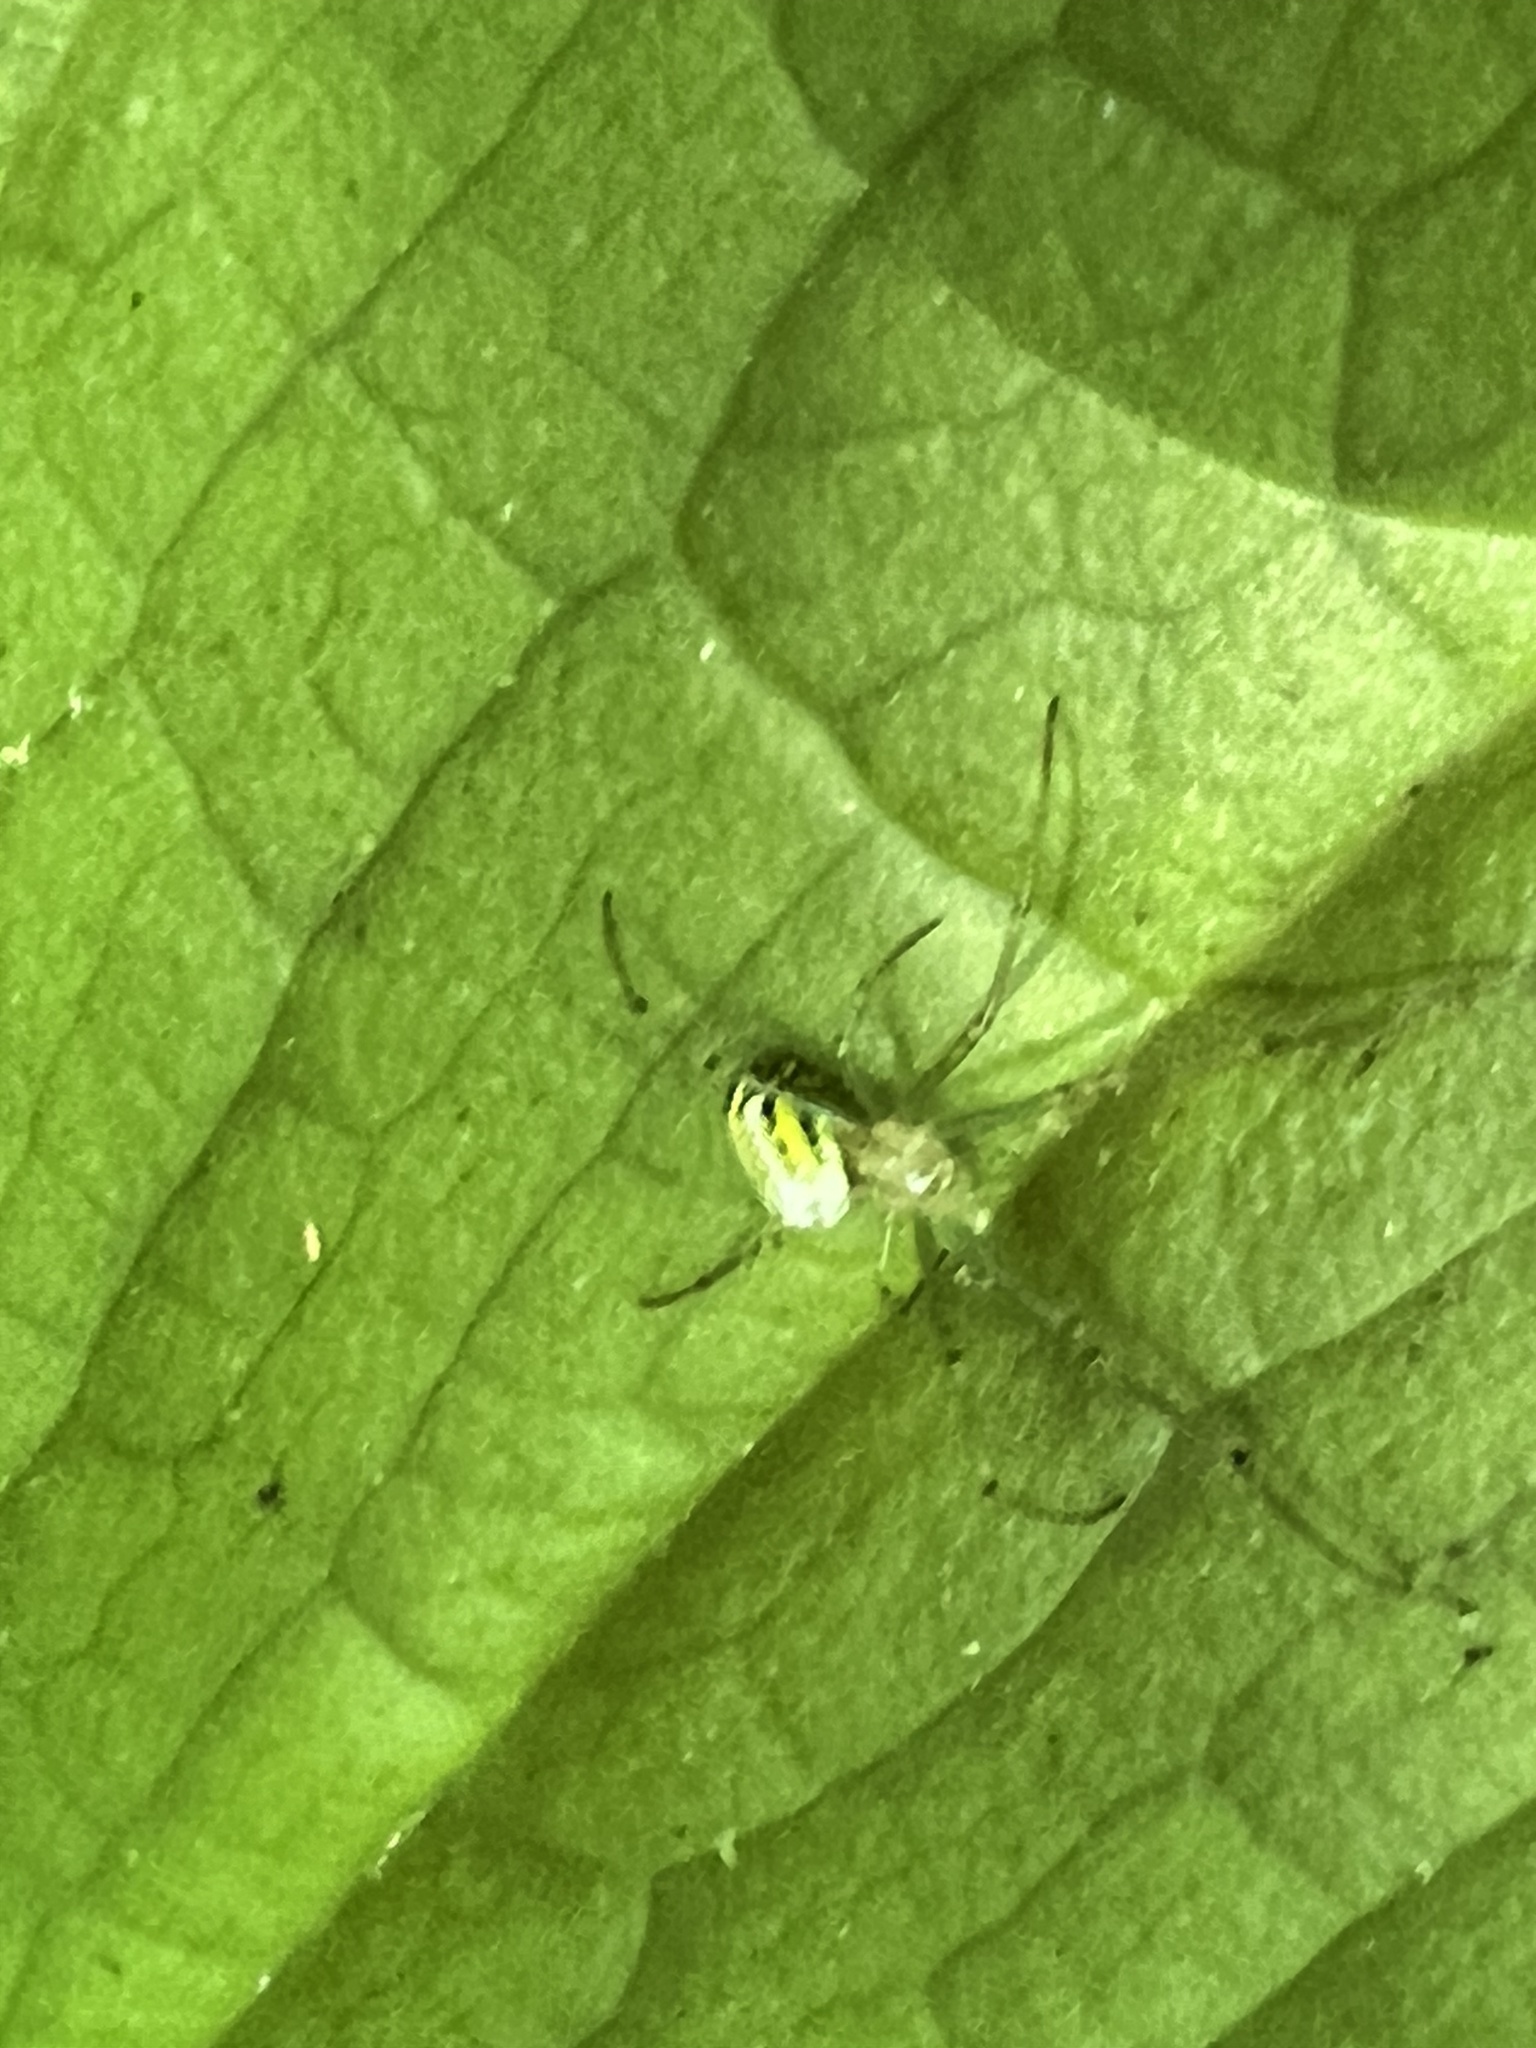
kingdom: Animalia
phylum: Arthropoda
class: Arachnida
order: Araneae
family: Tetragnathidae
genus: Leucauge
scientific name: Leucauge venusta
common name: Longjawed orb weavers
